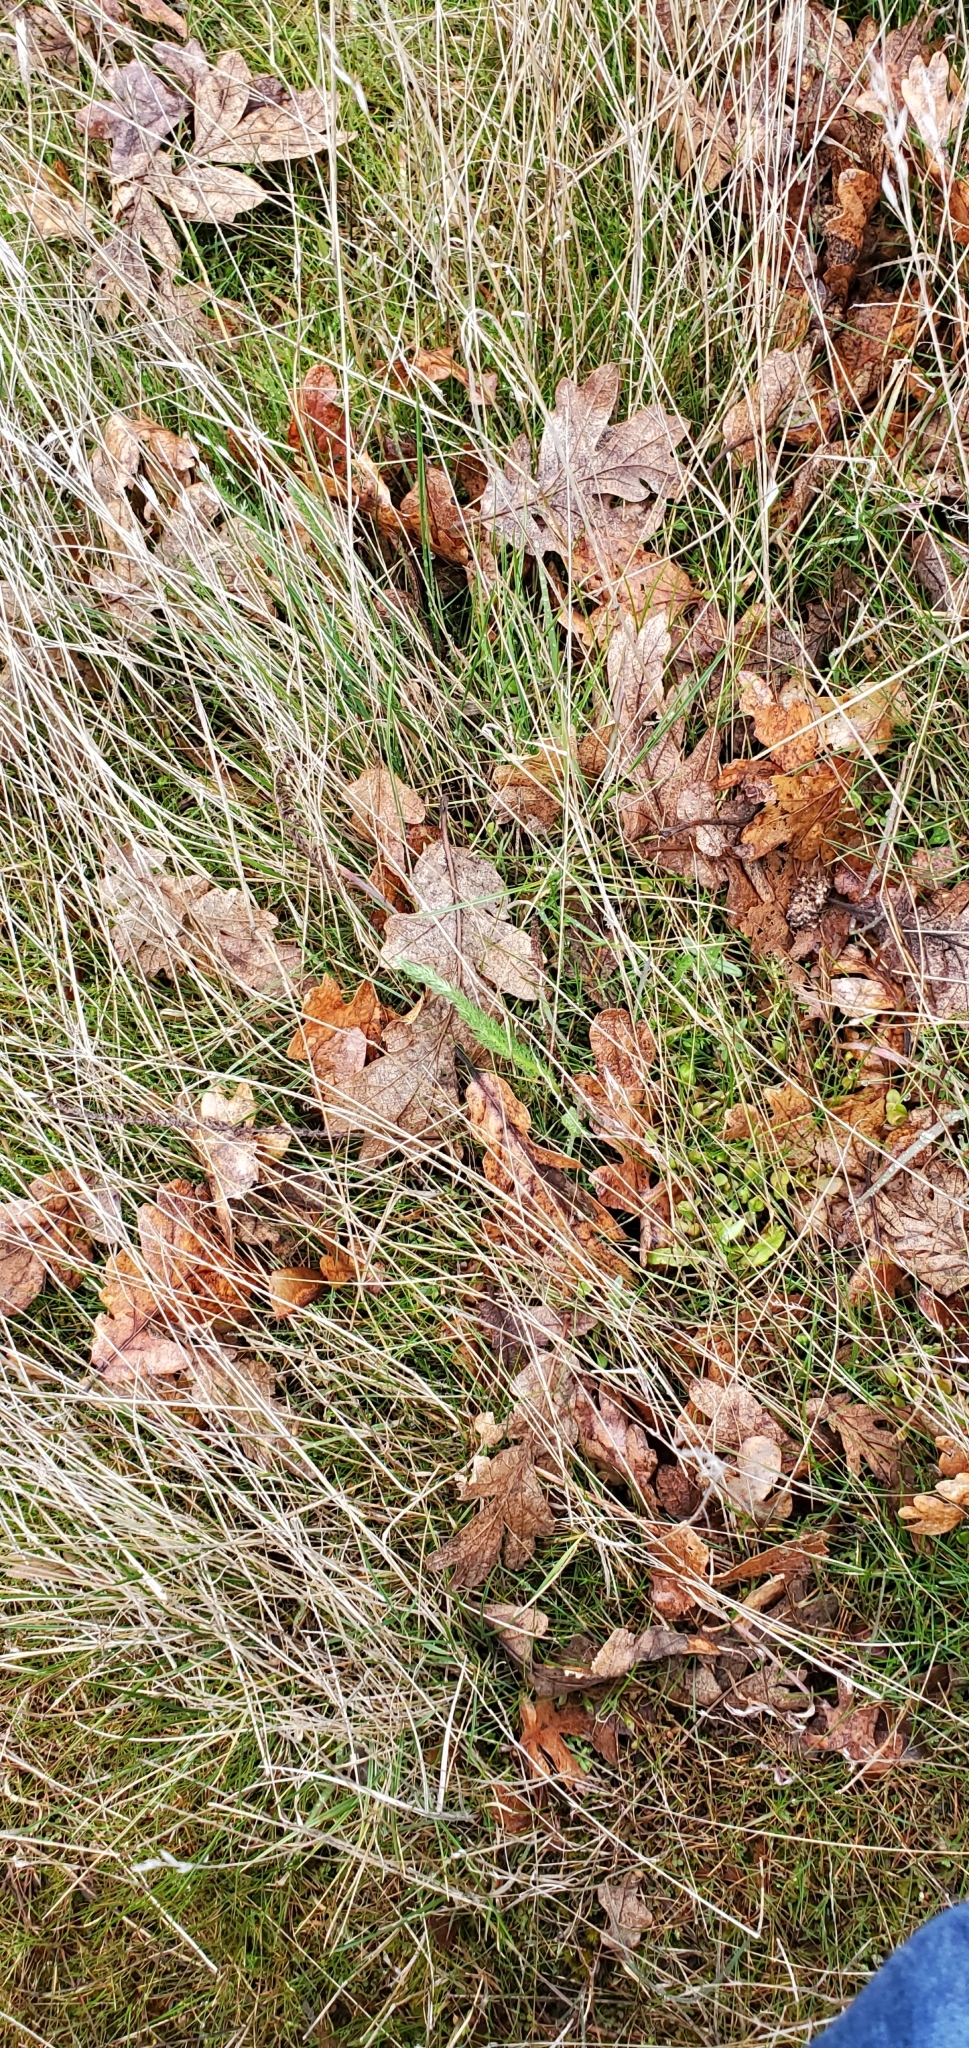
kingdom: Plantae
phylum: Tracheophyta
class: Magnoliopsida
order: Asterales
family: Asteraceae
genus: Achillea
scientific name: Achillea millefolium
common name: Yarrow
